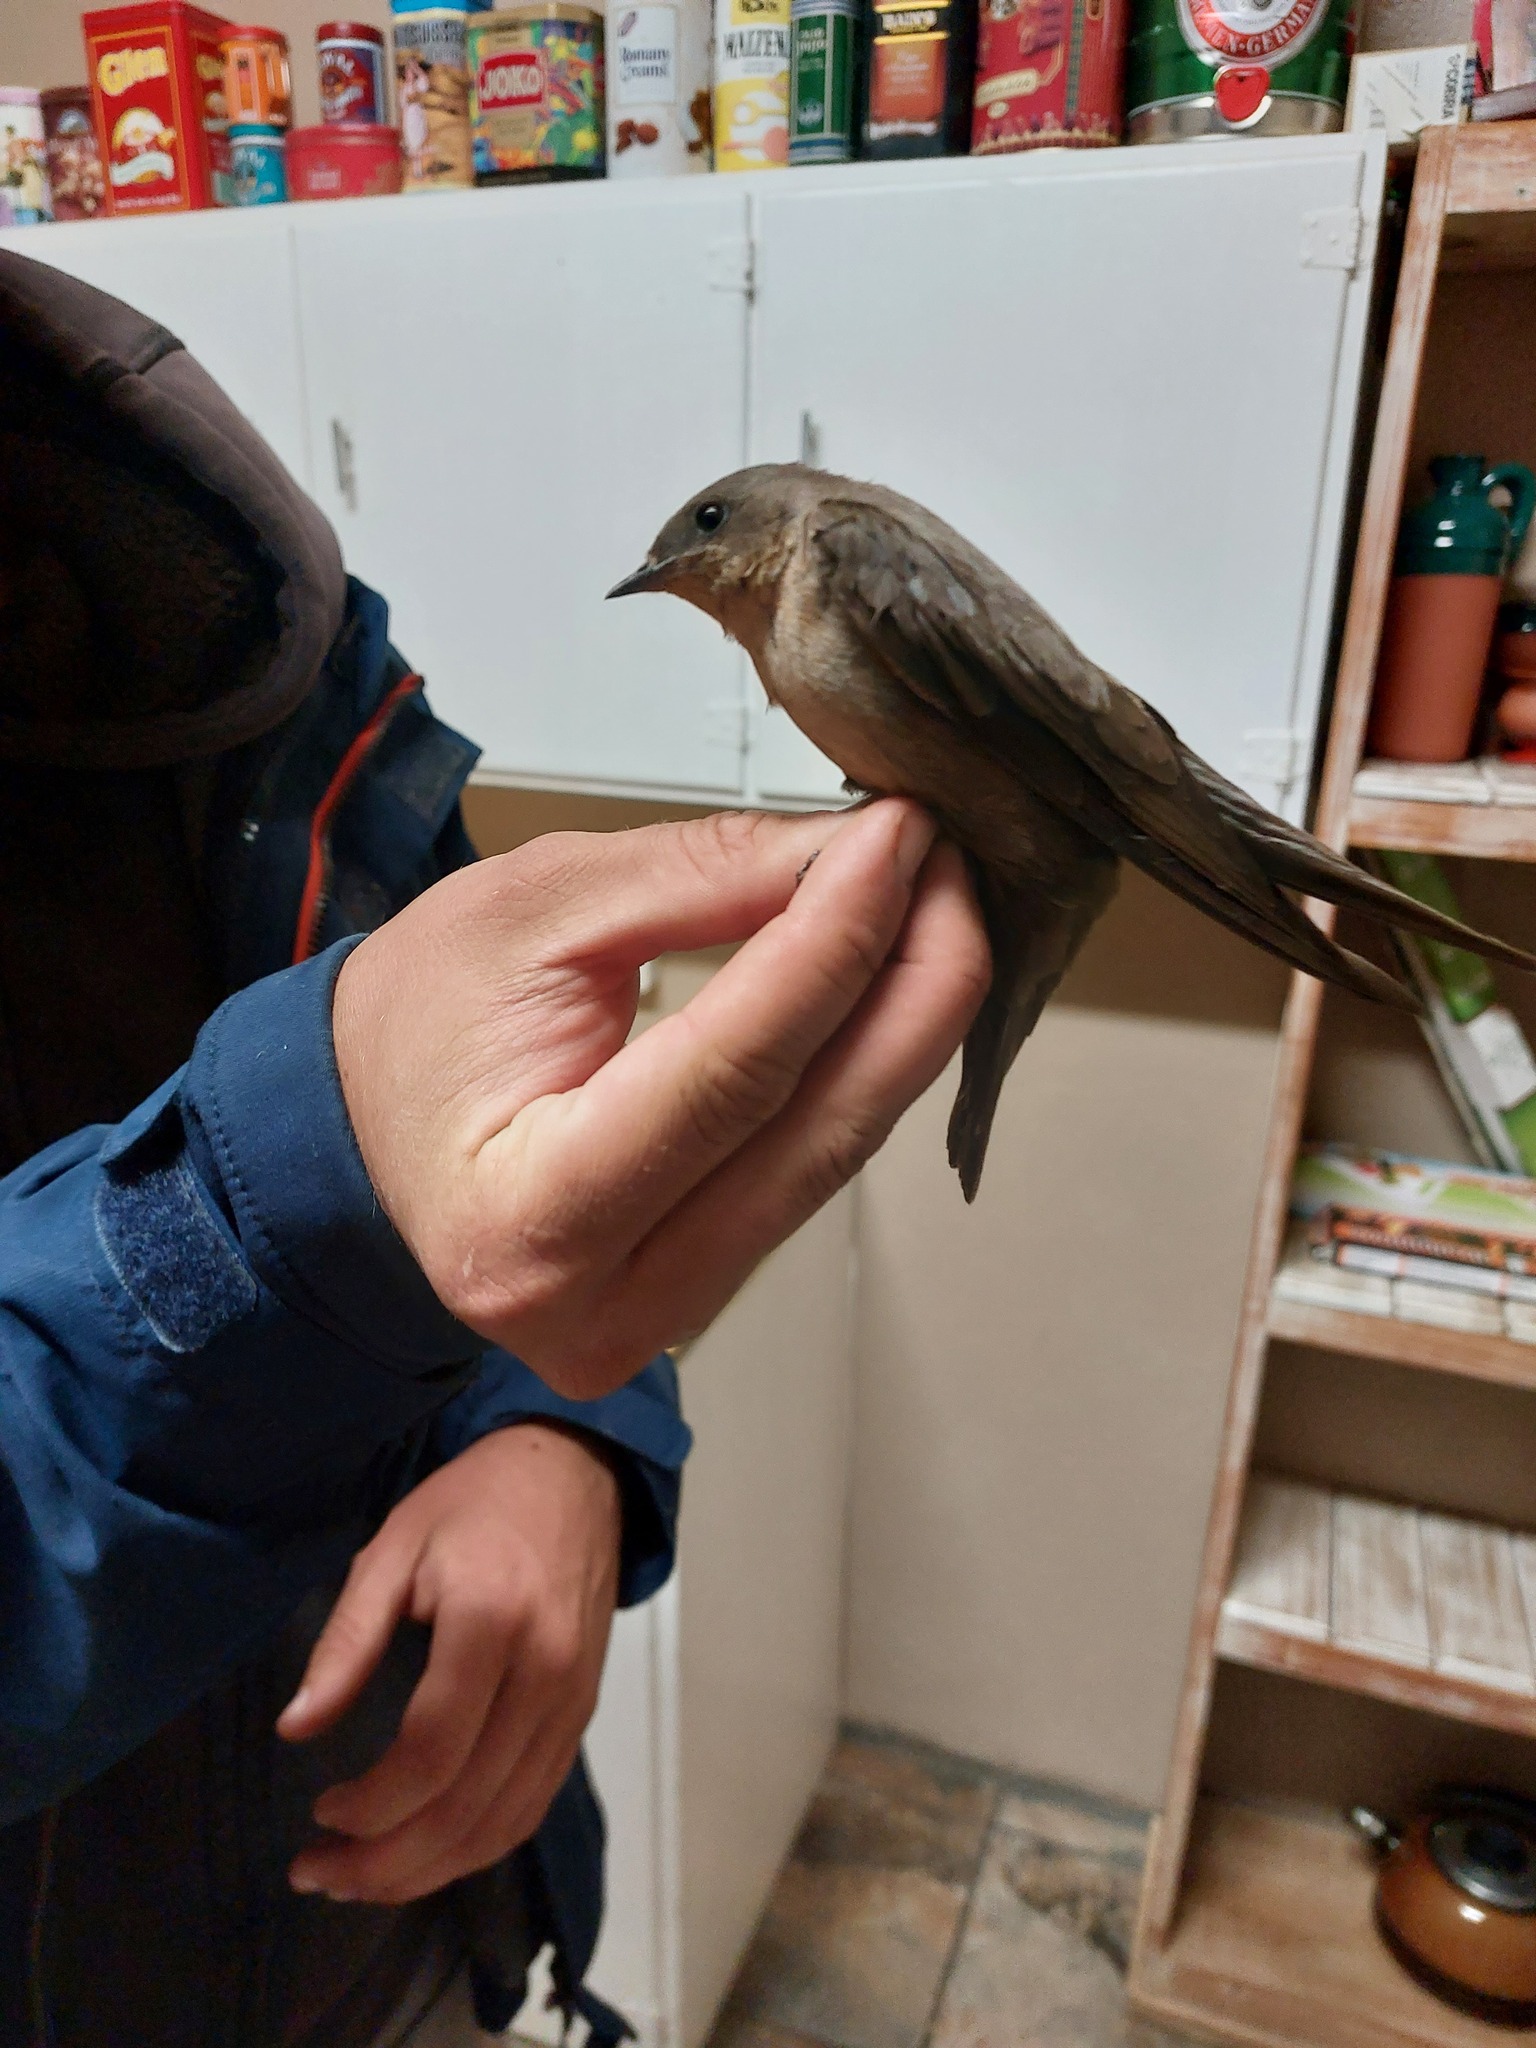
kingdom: Animalia
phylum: Chordata
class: Aves
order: Passeriformes
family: Hirundinidae
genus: Ptyonoprogne
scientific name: Ptyonoprogne fuligula
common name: Rock martin
